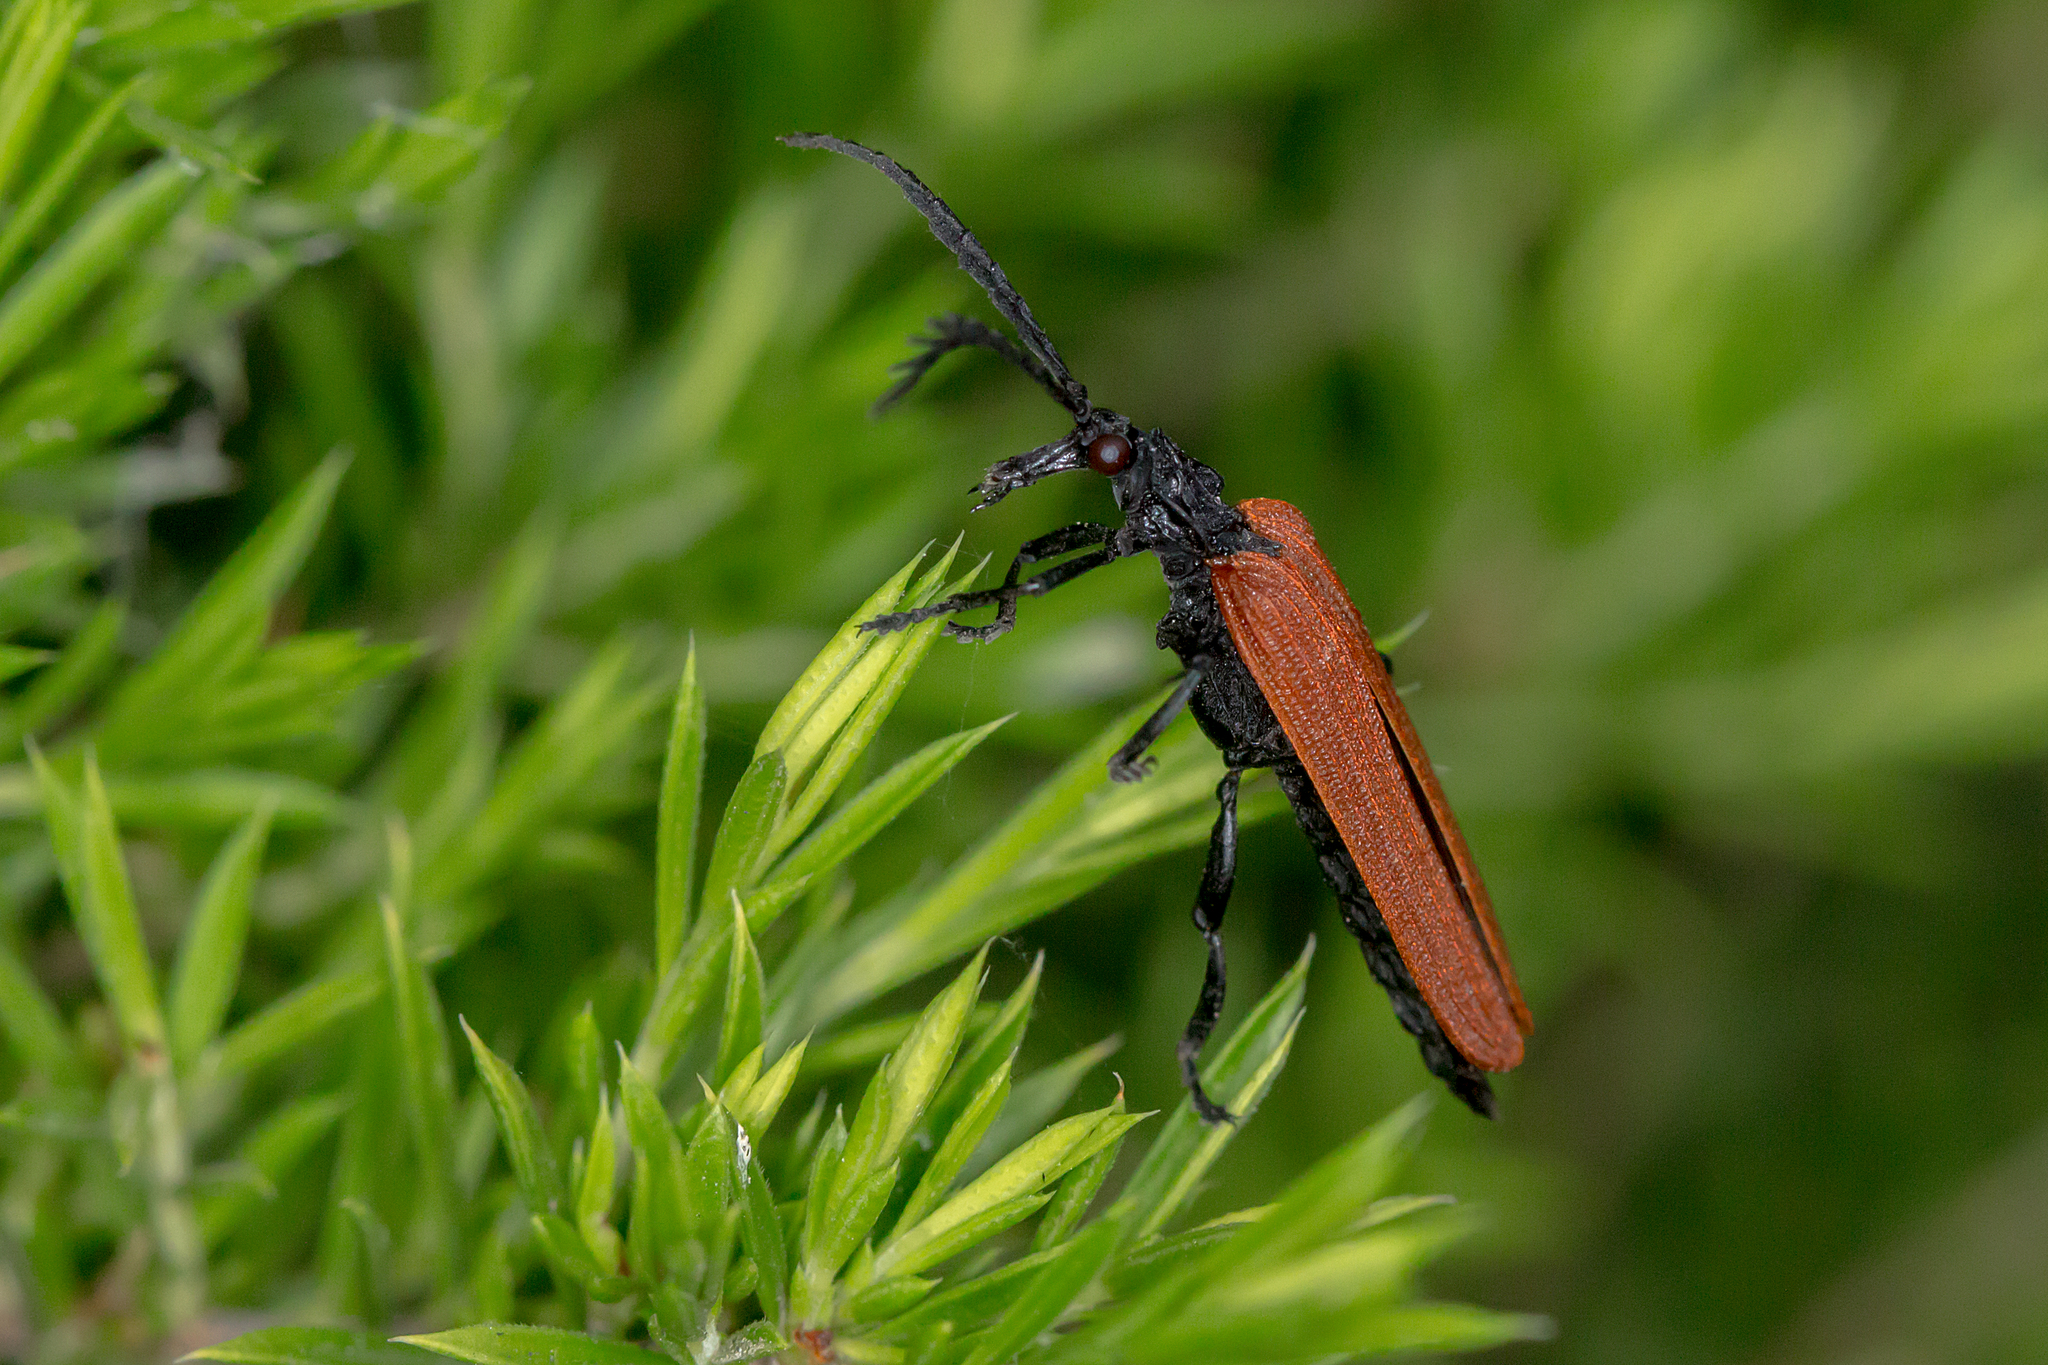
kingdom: Animalia
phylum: Arthropoda
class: Insecta
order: Coleoptera
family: Lycidae
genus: Porrostoma
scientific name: Porrostoma rhipidium
